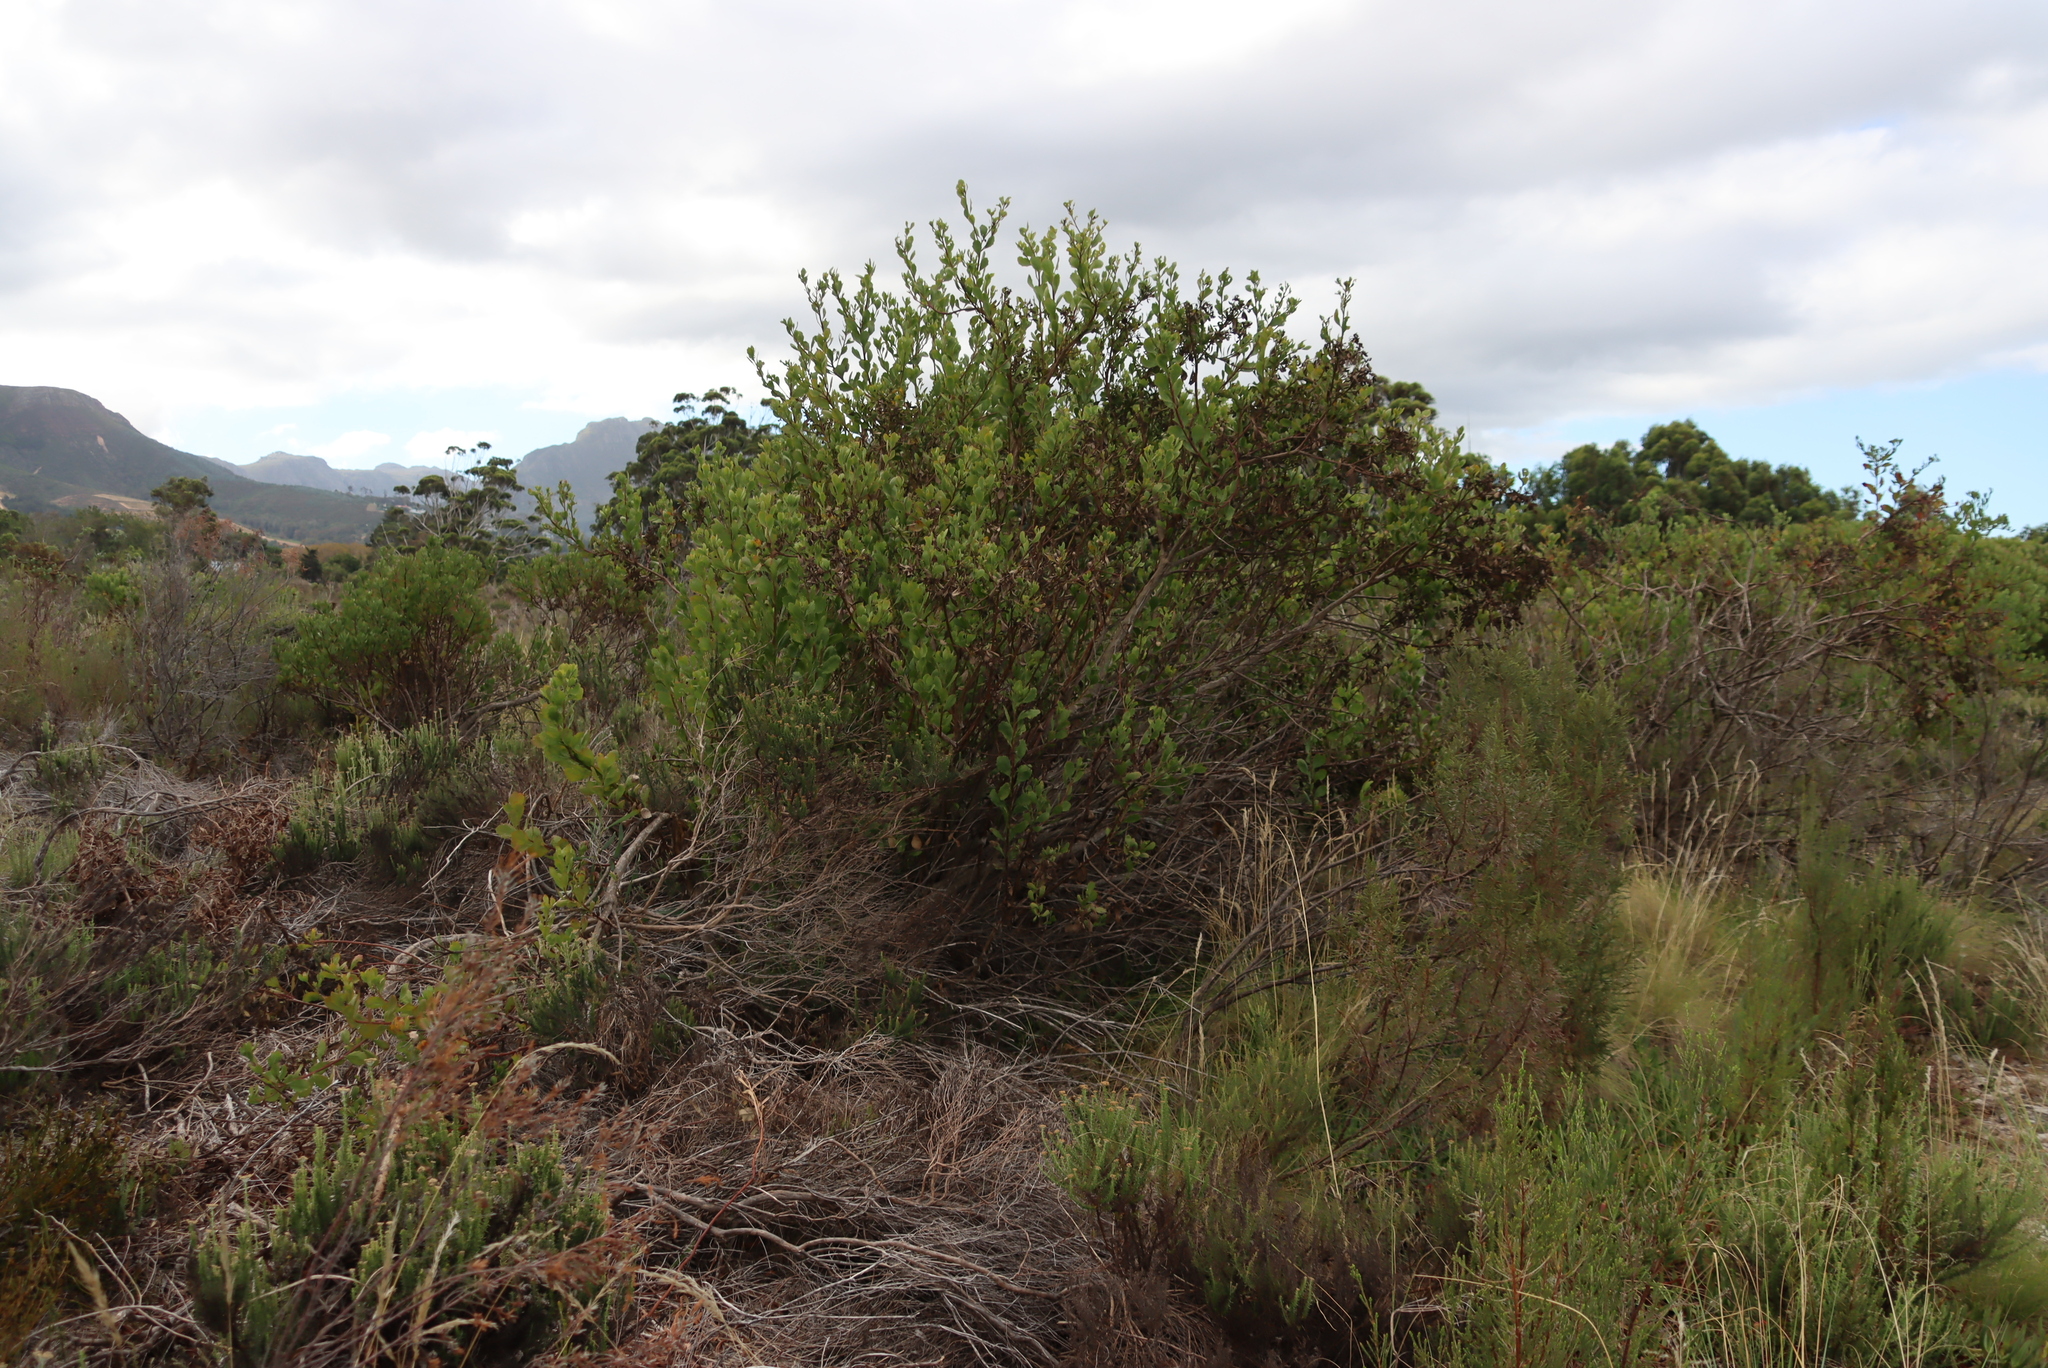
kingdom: Plantae
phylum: Tracheophyta
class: Magnoliopsida
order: Asterales
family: Asteraceae
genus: Osteospermum
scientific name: Osteospermum moniliferum
